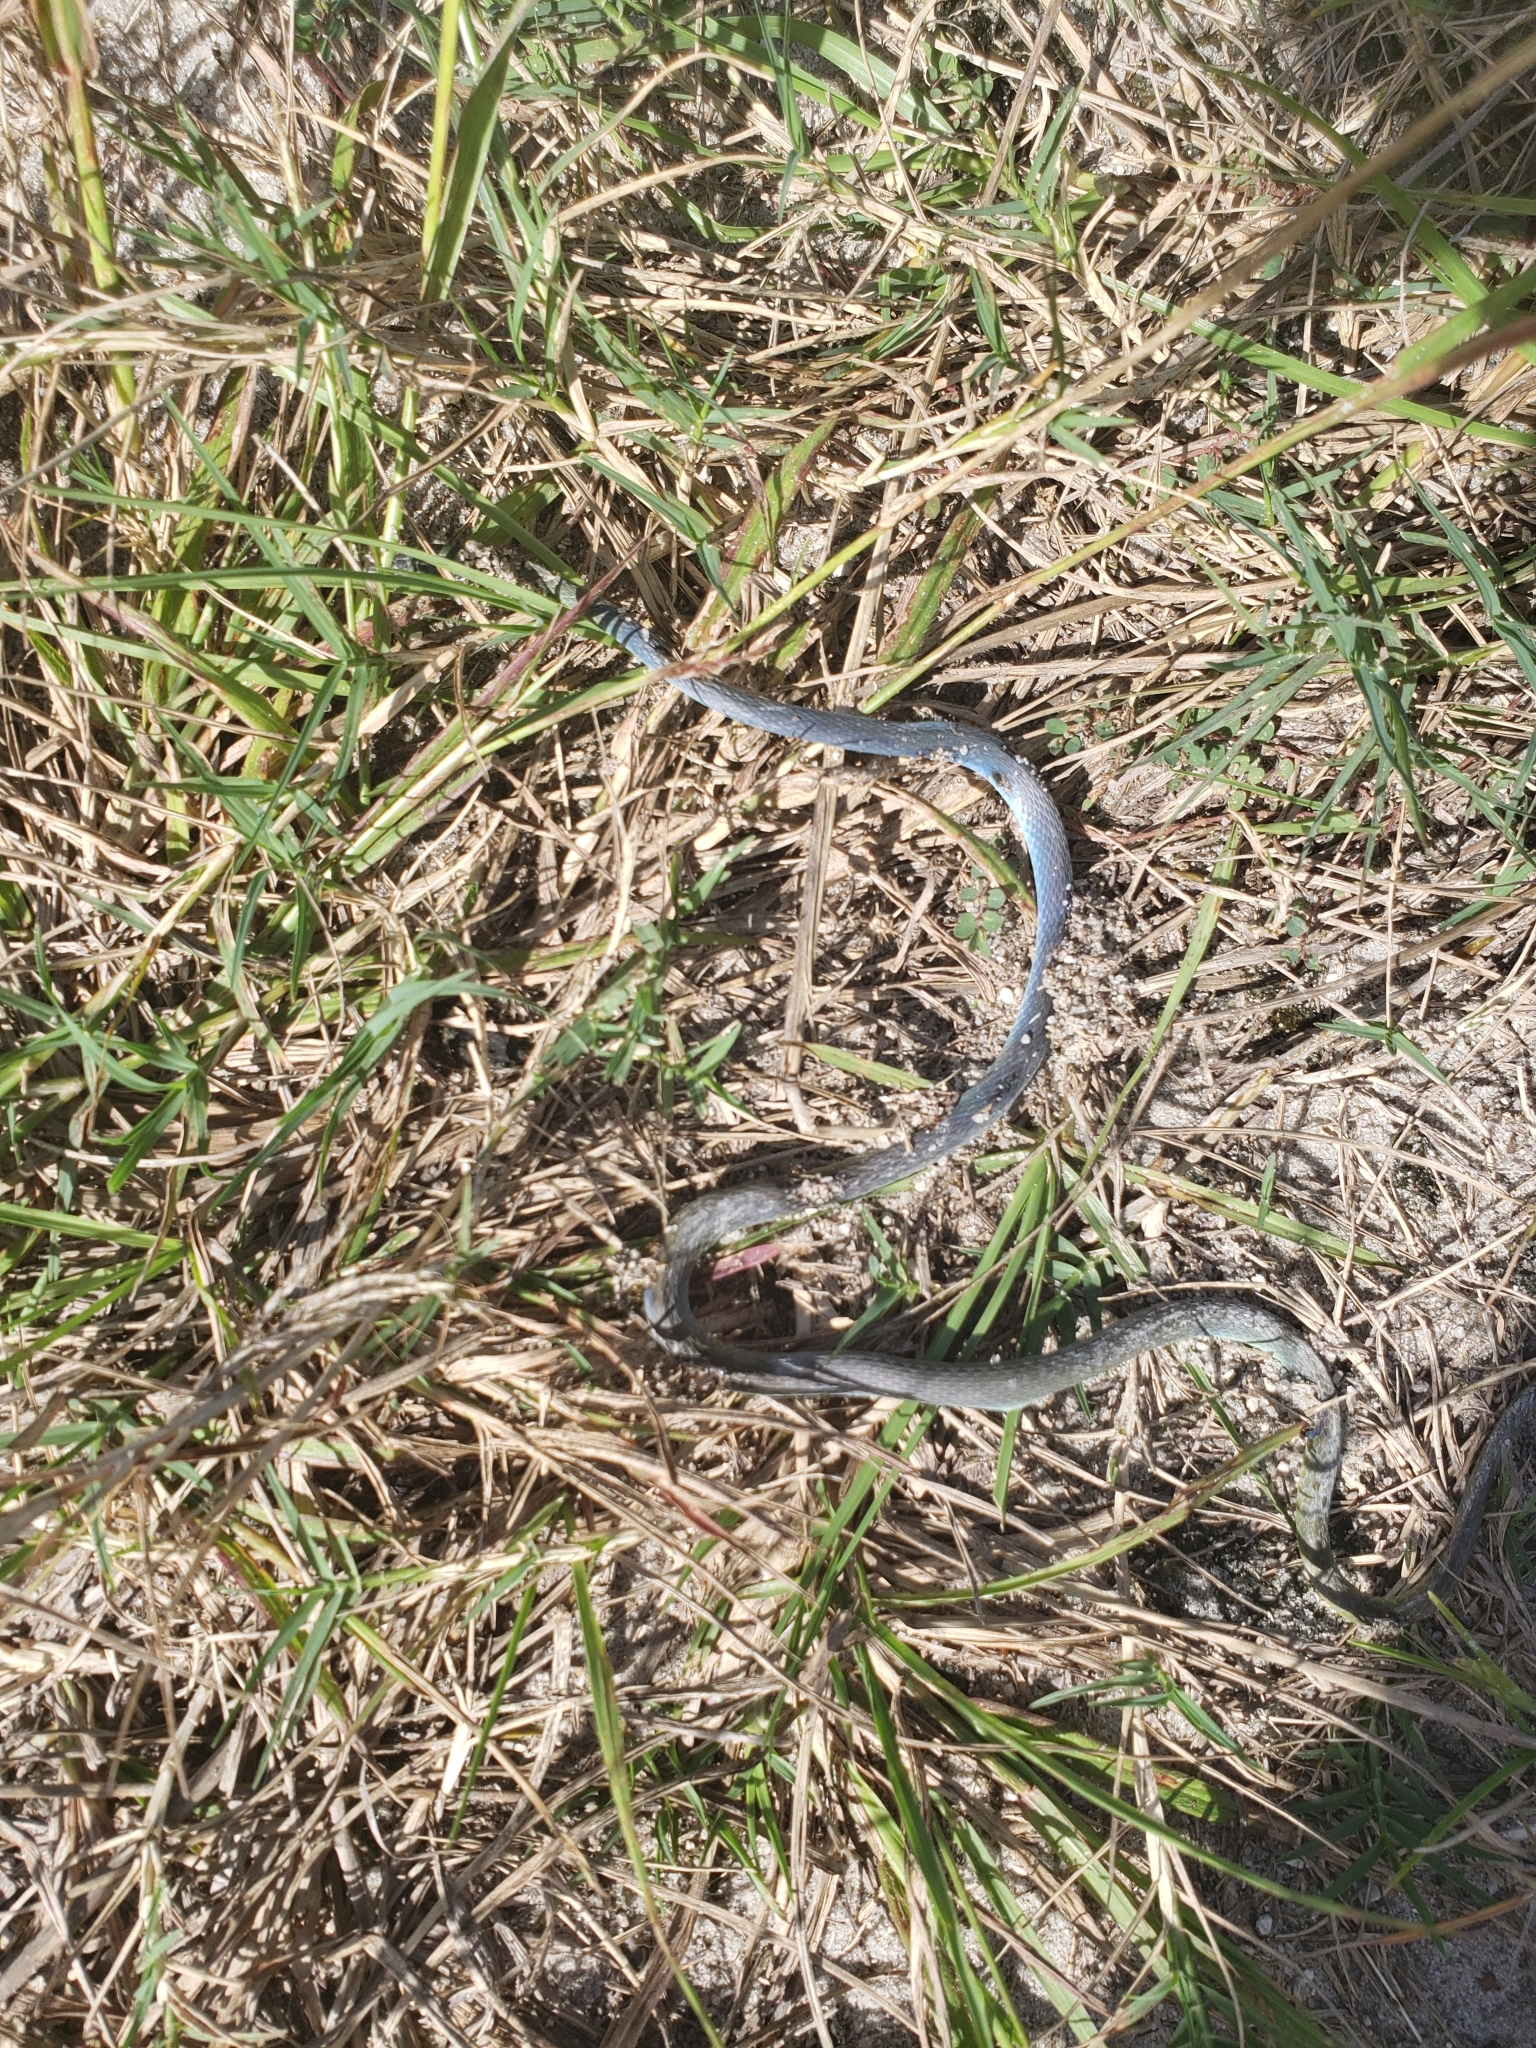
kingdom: Animalia
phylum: Chordata
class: Squamata
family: Colubridae
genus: Opheodrys
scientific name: Opheodrys aestivus
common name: Rough greensnake
